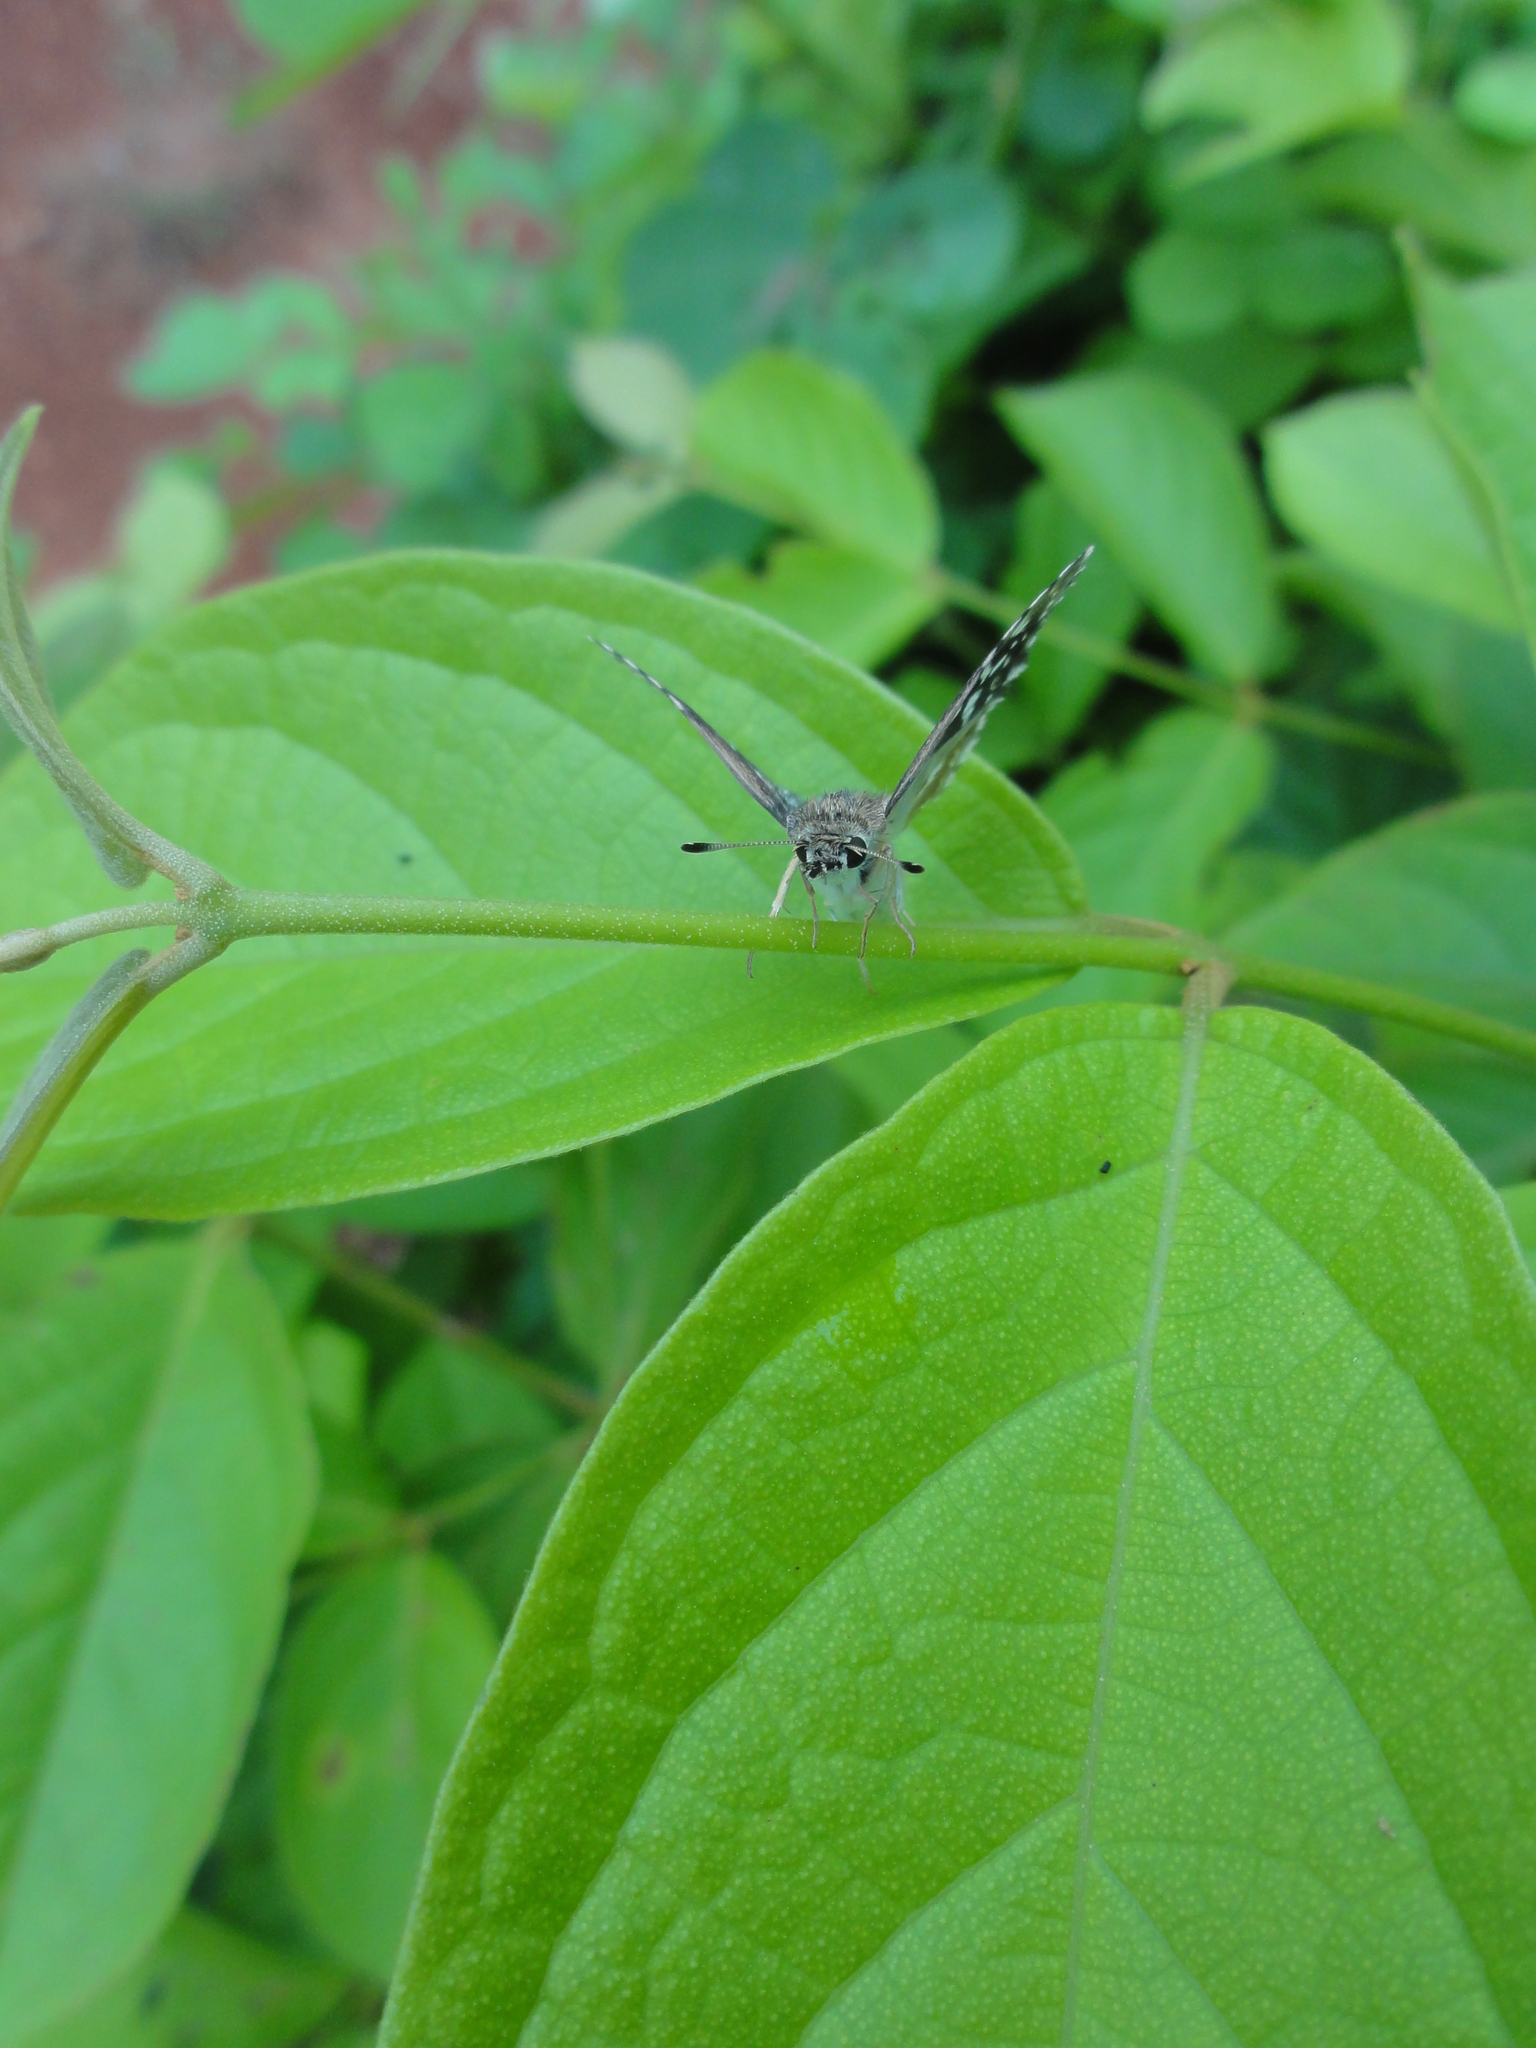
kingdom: Animalia
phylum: Arthropoda
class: Insecta
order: Lepidoptera
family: Hesperiidae
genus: Spialia
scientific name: Spialia galba
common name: Indian skipper
